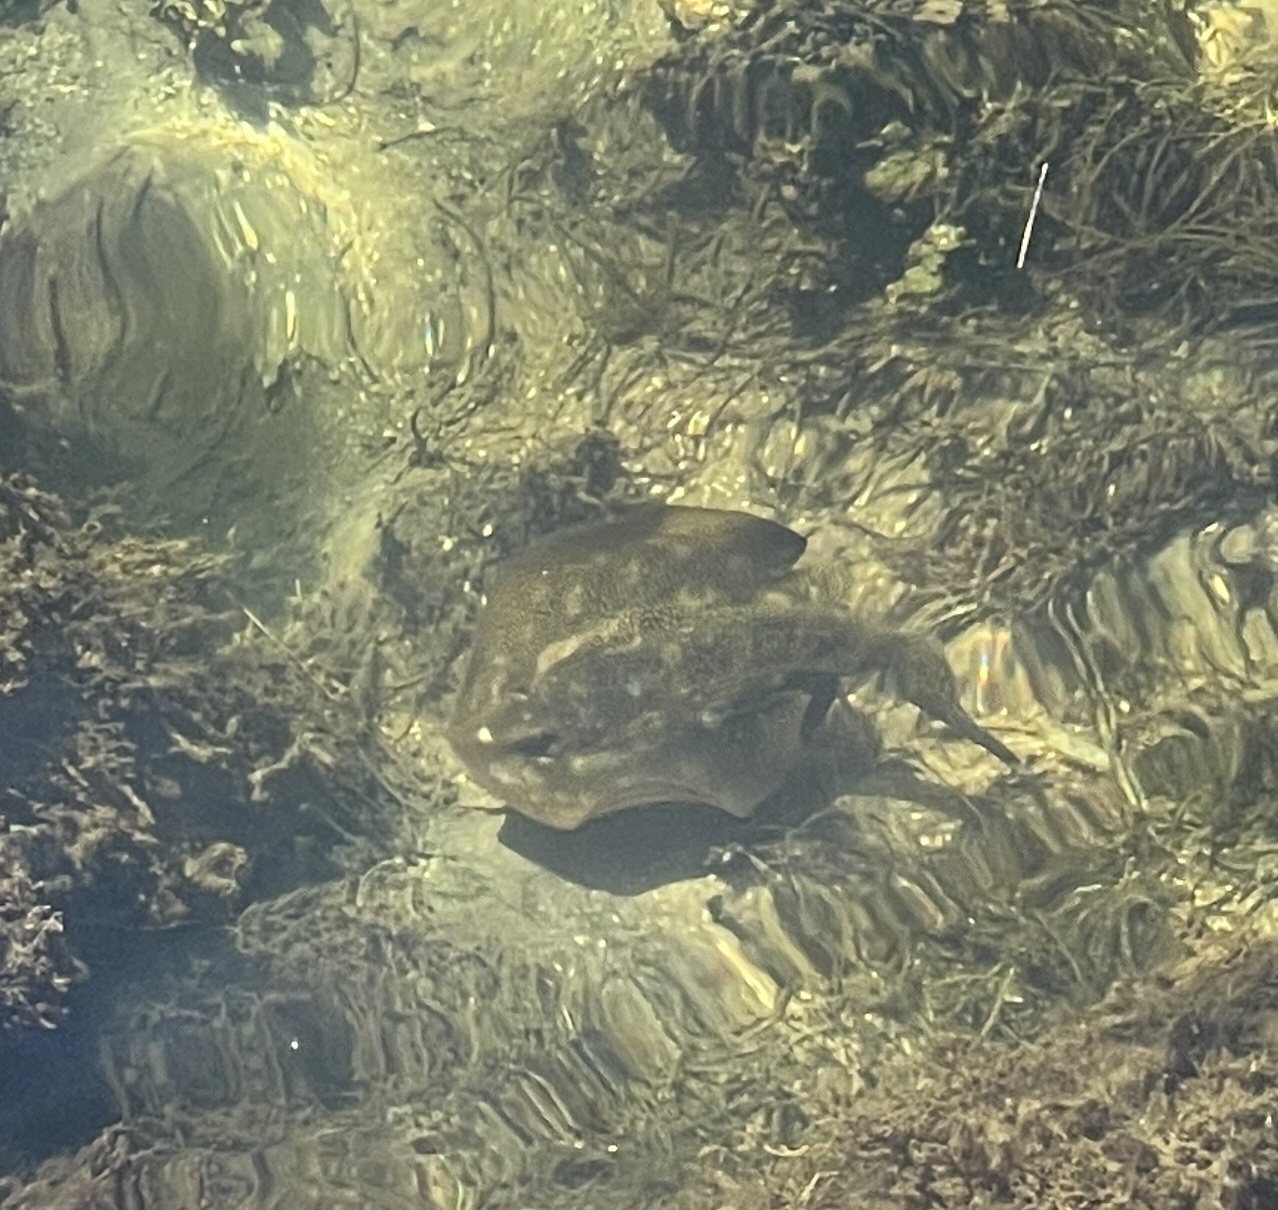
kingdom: Animalia
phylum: Chordata
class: Elasmobranchii
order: Myliobatiformes
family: Urotrygonidae
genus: Urobatis
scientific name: Urobatis jamaicensis
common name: Yellow stingray
